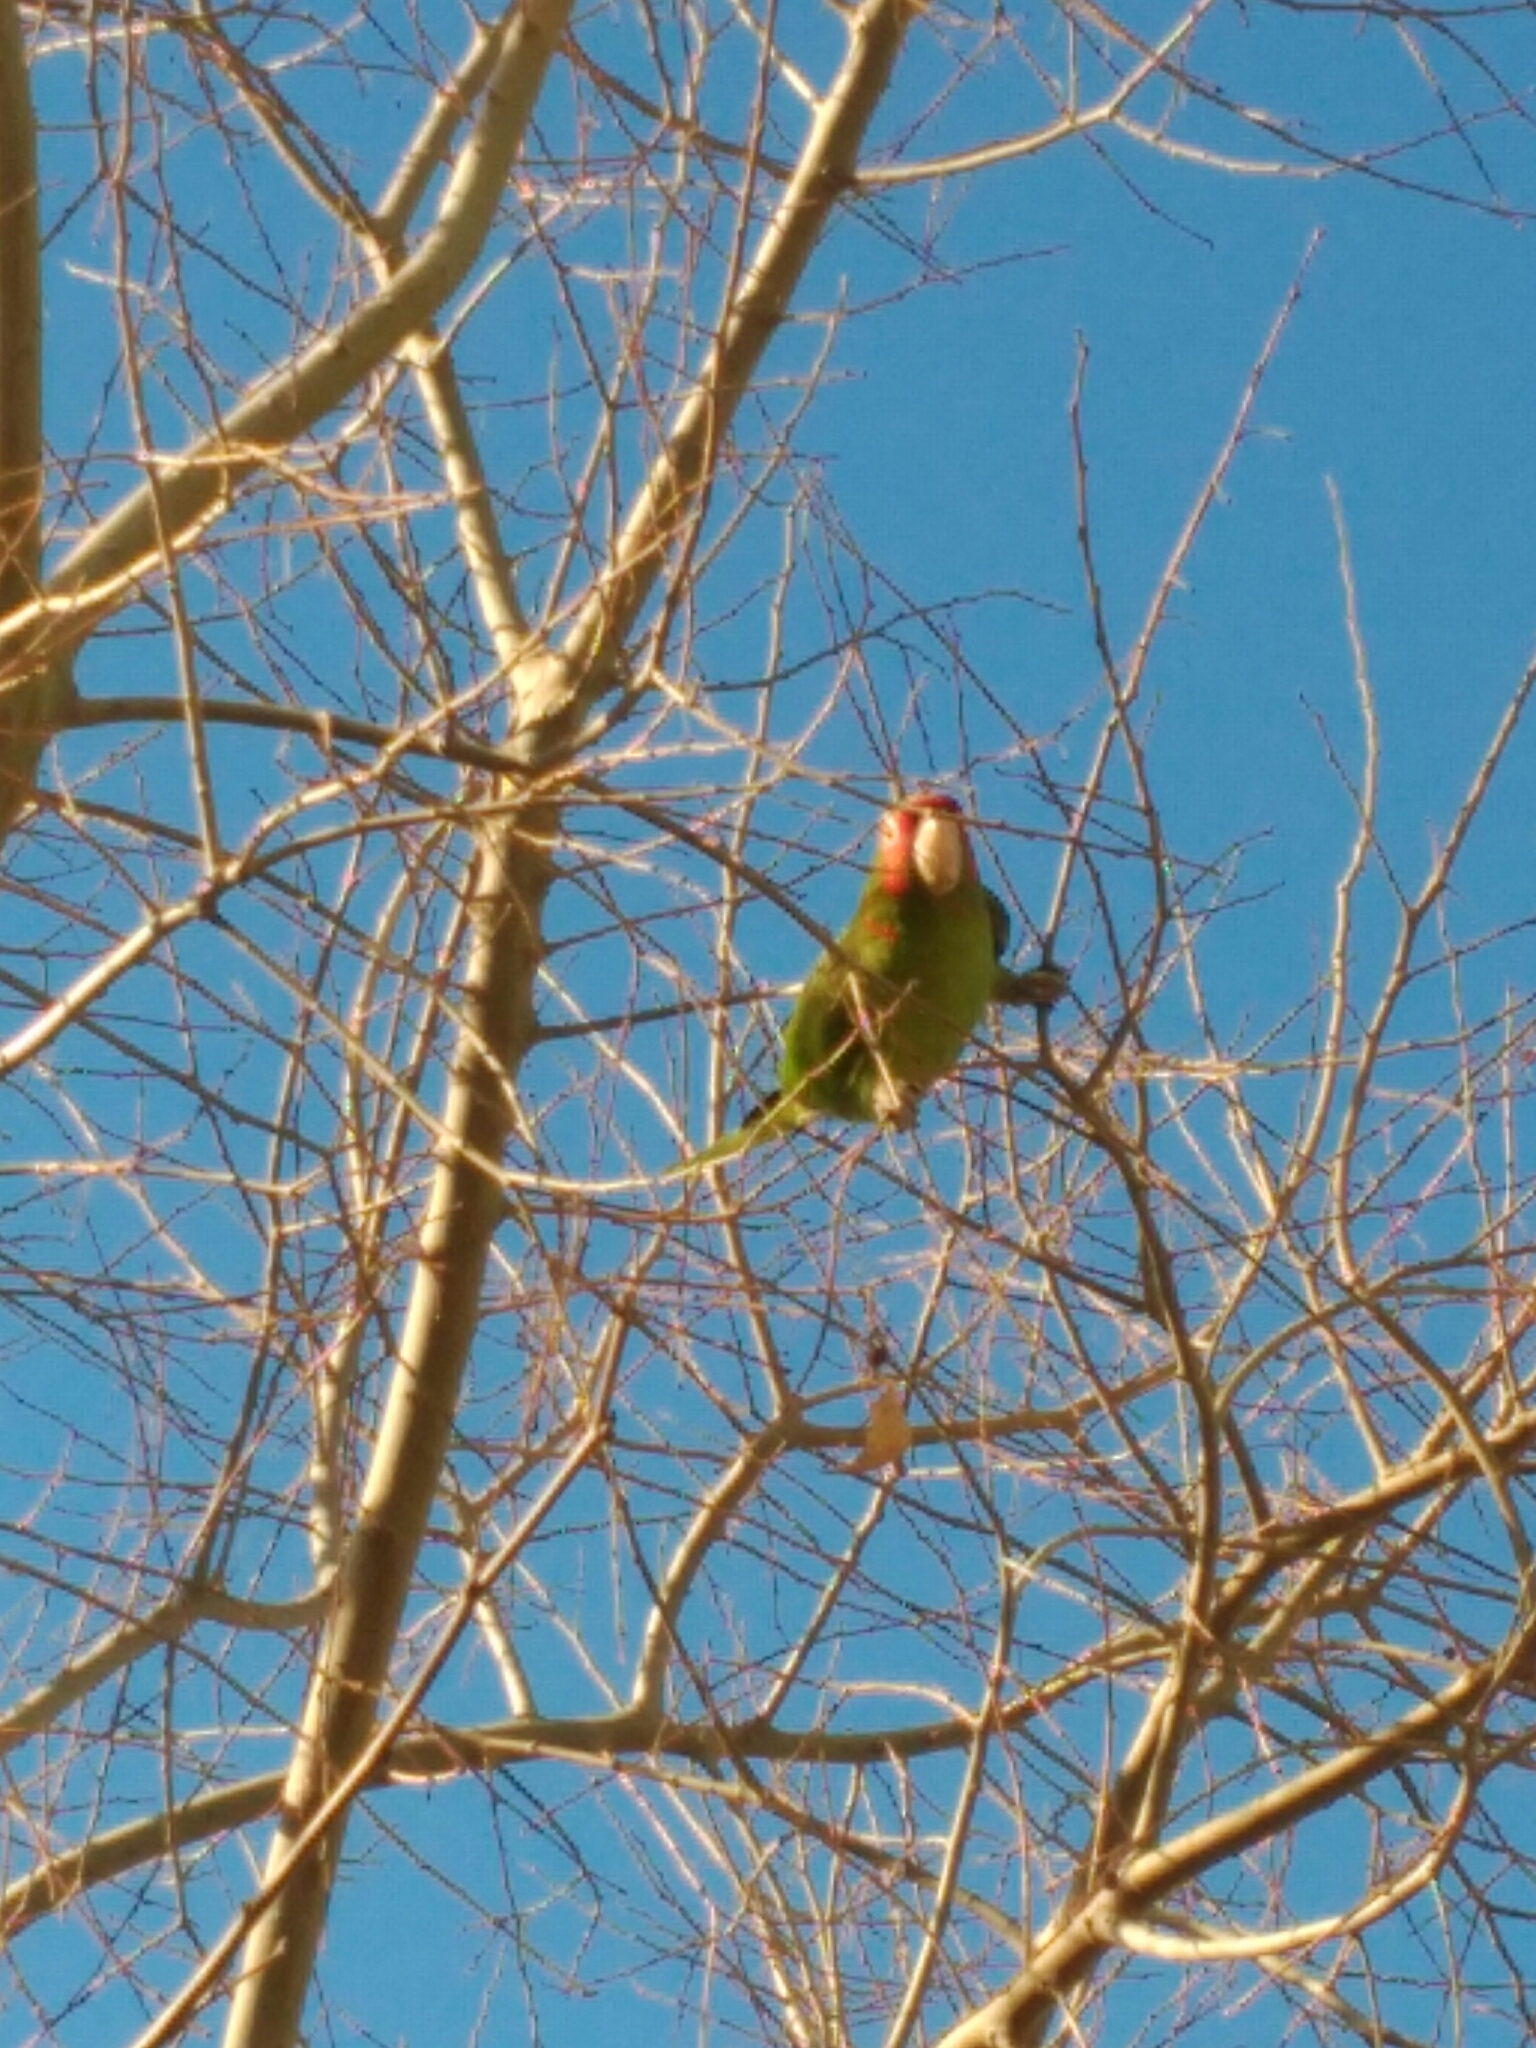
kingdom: Animalia
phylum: Chordata
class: Aves
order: Psittaciformes
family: Psittacidae
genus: Aratinga
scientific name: Aratinga mitrata
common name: Mitred parakeet
